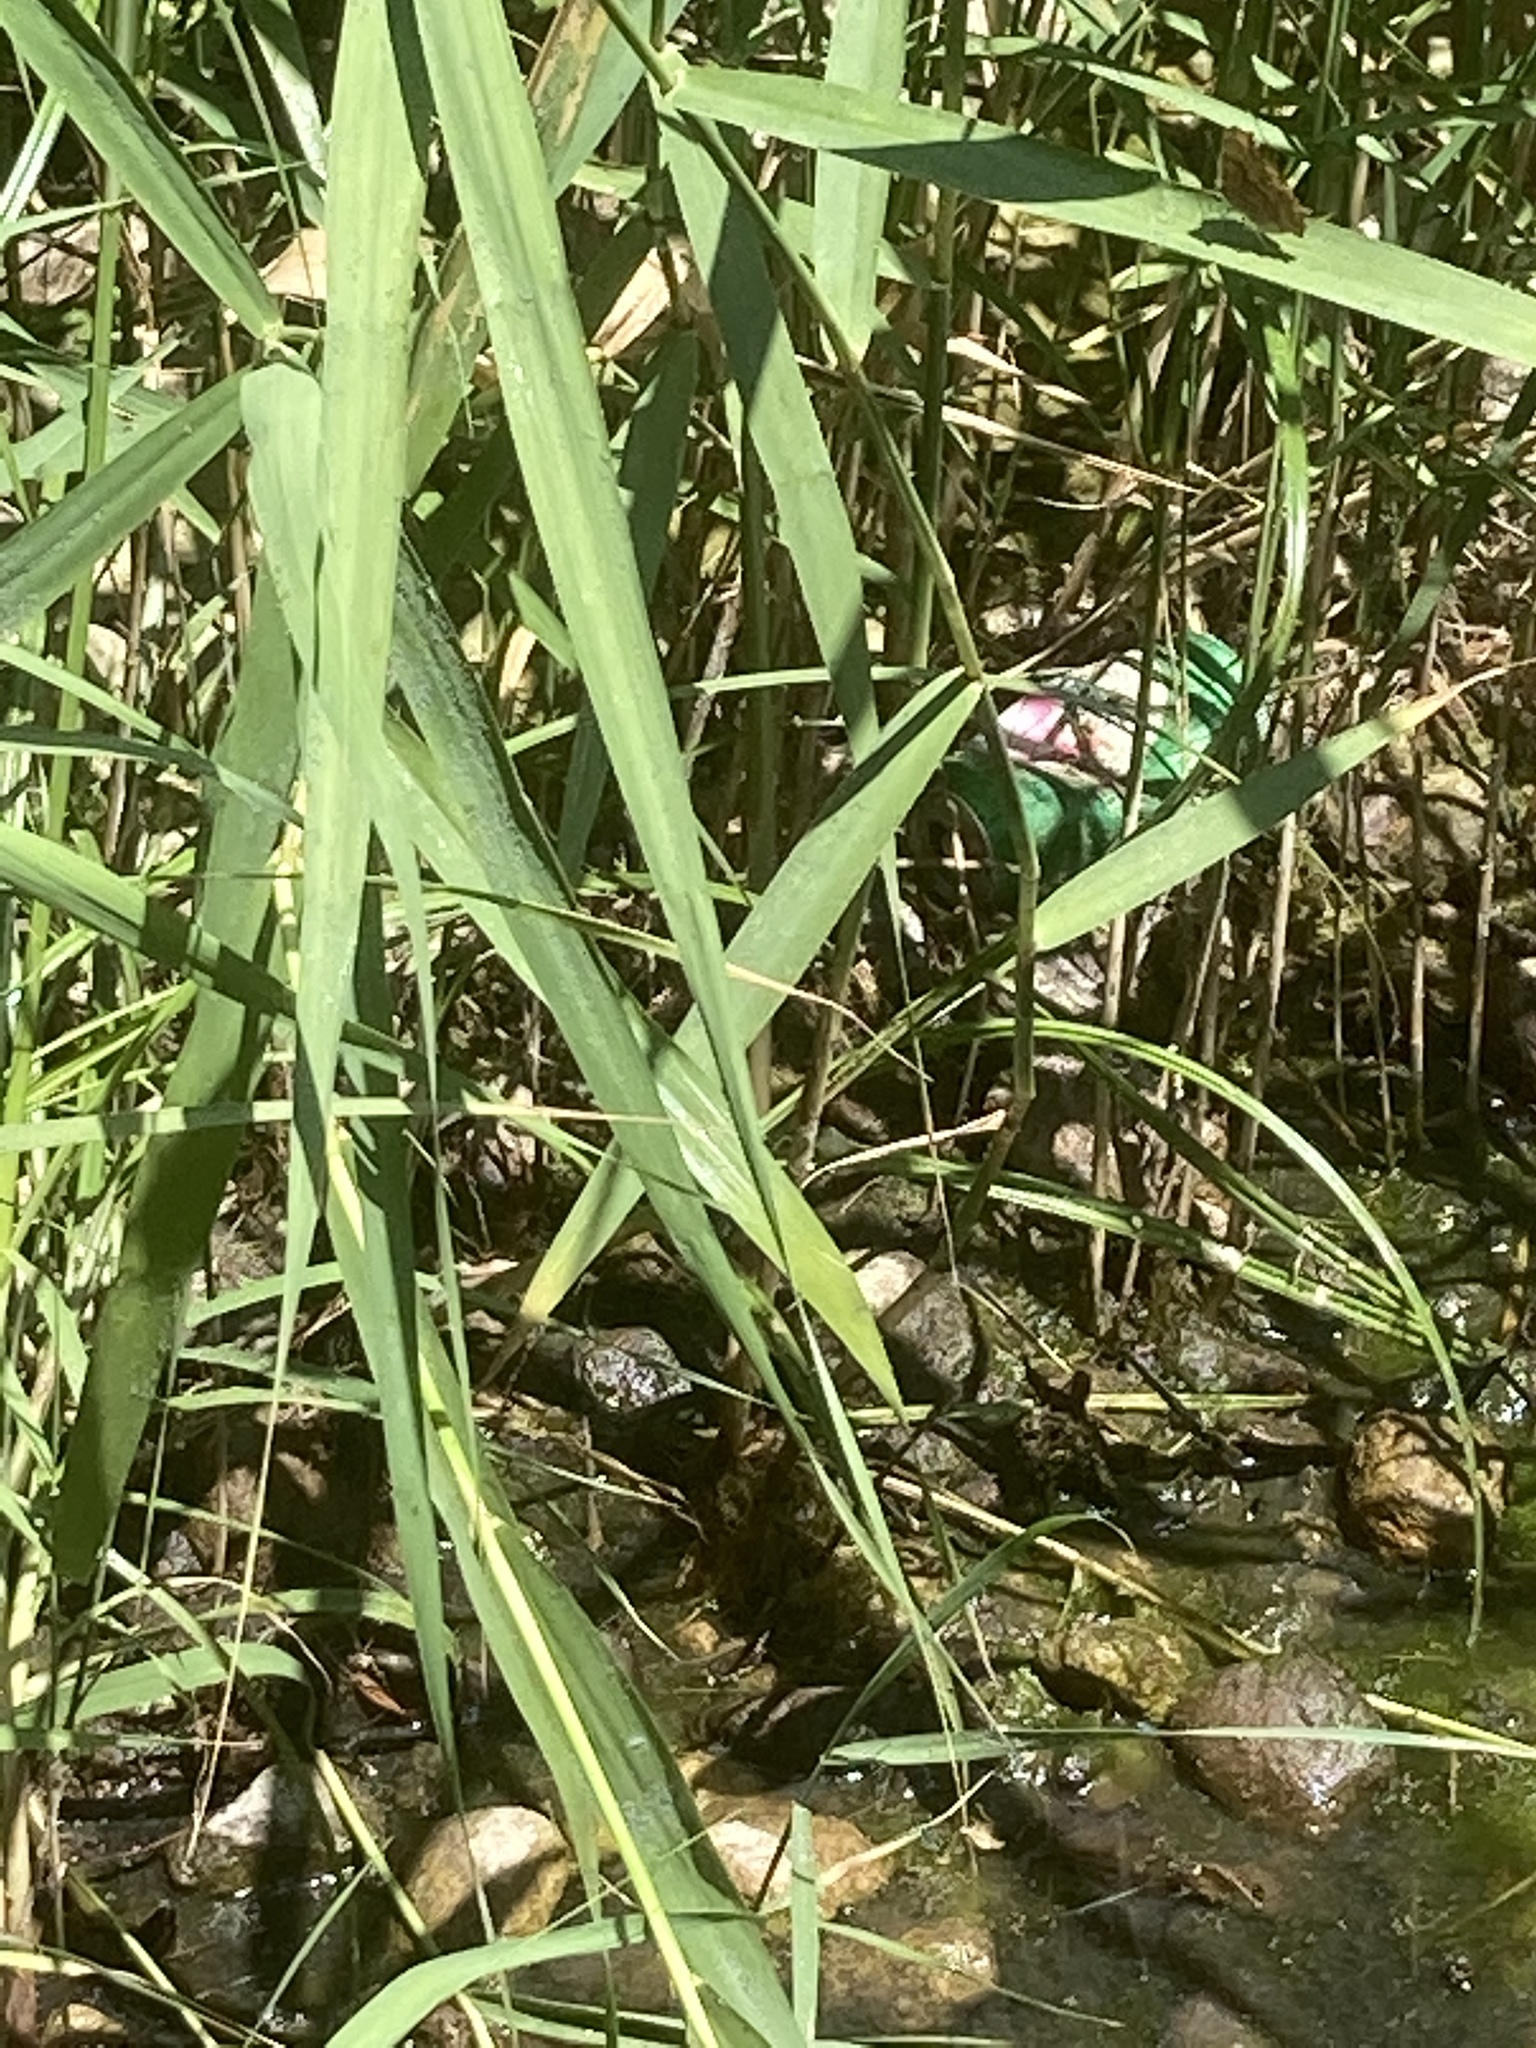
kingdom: Animalia
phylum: Arthropoda
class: Insecta
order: Lepidoptera
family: Nymphalidae
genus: Polygonia
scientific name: Polygonia egea
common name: Southern comma
